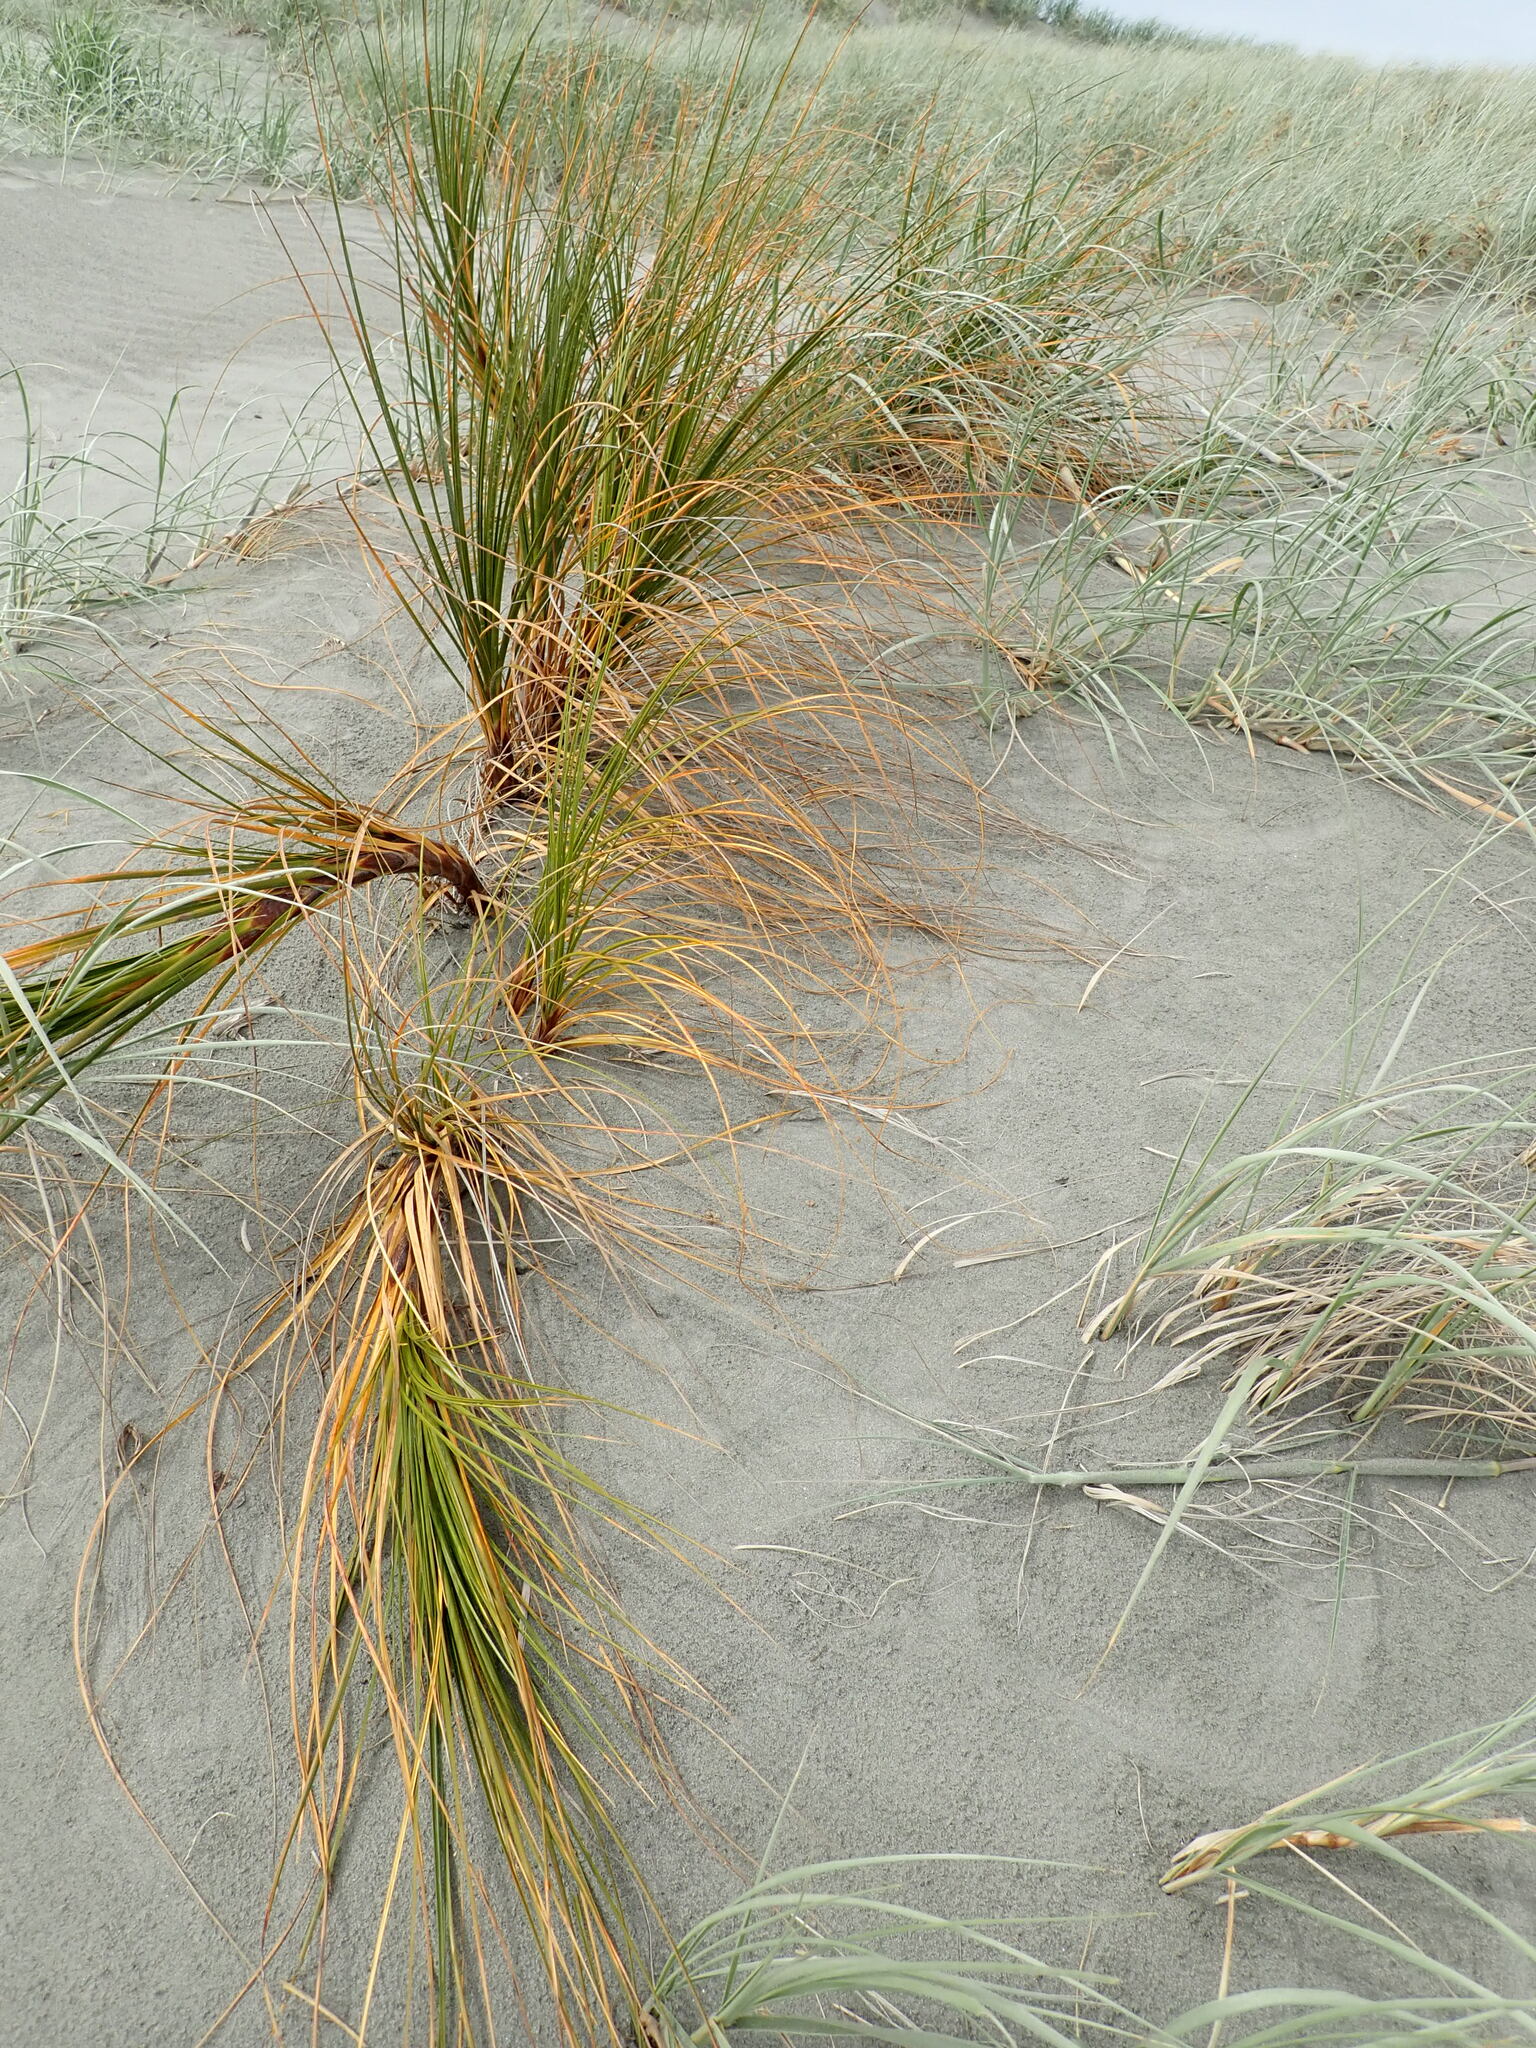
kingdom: Plantae
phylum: Tracheophyta
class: Liliopsida
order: Poales
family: Cyperaceae
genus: Ficinia
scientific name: Ficinia spiralis
